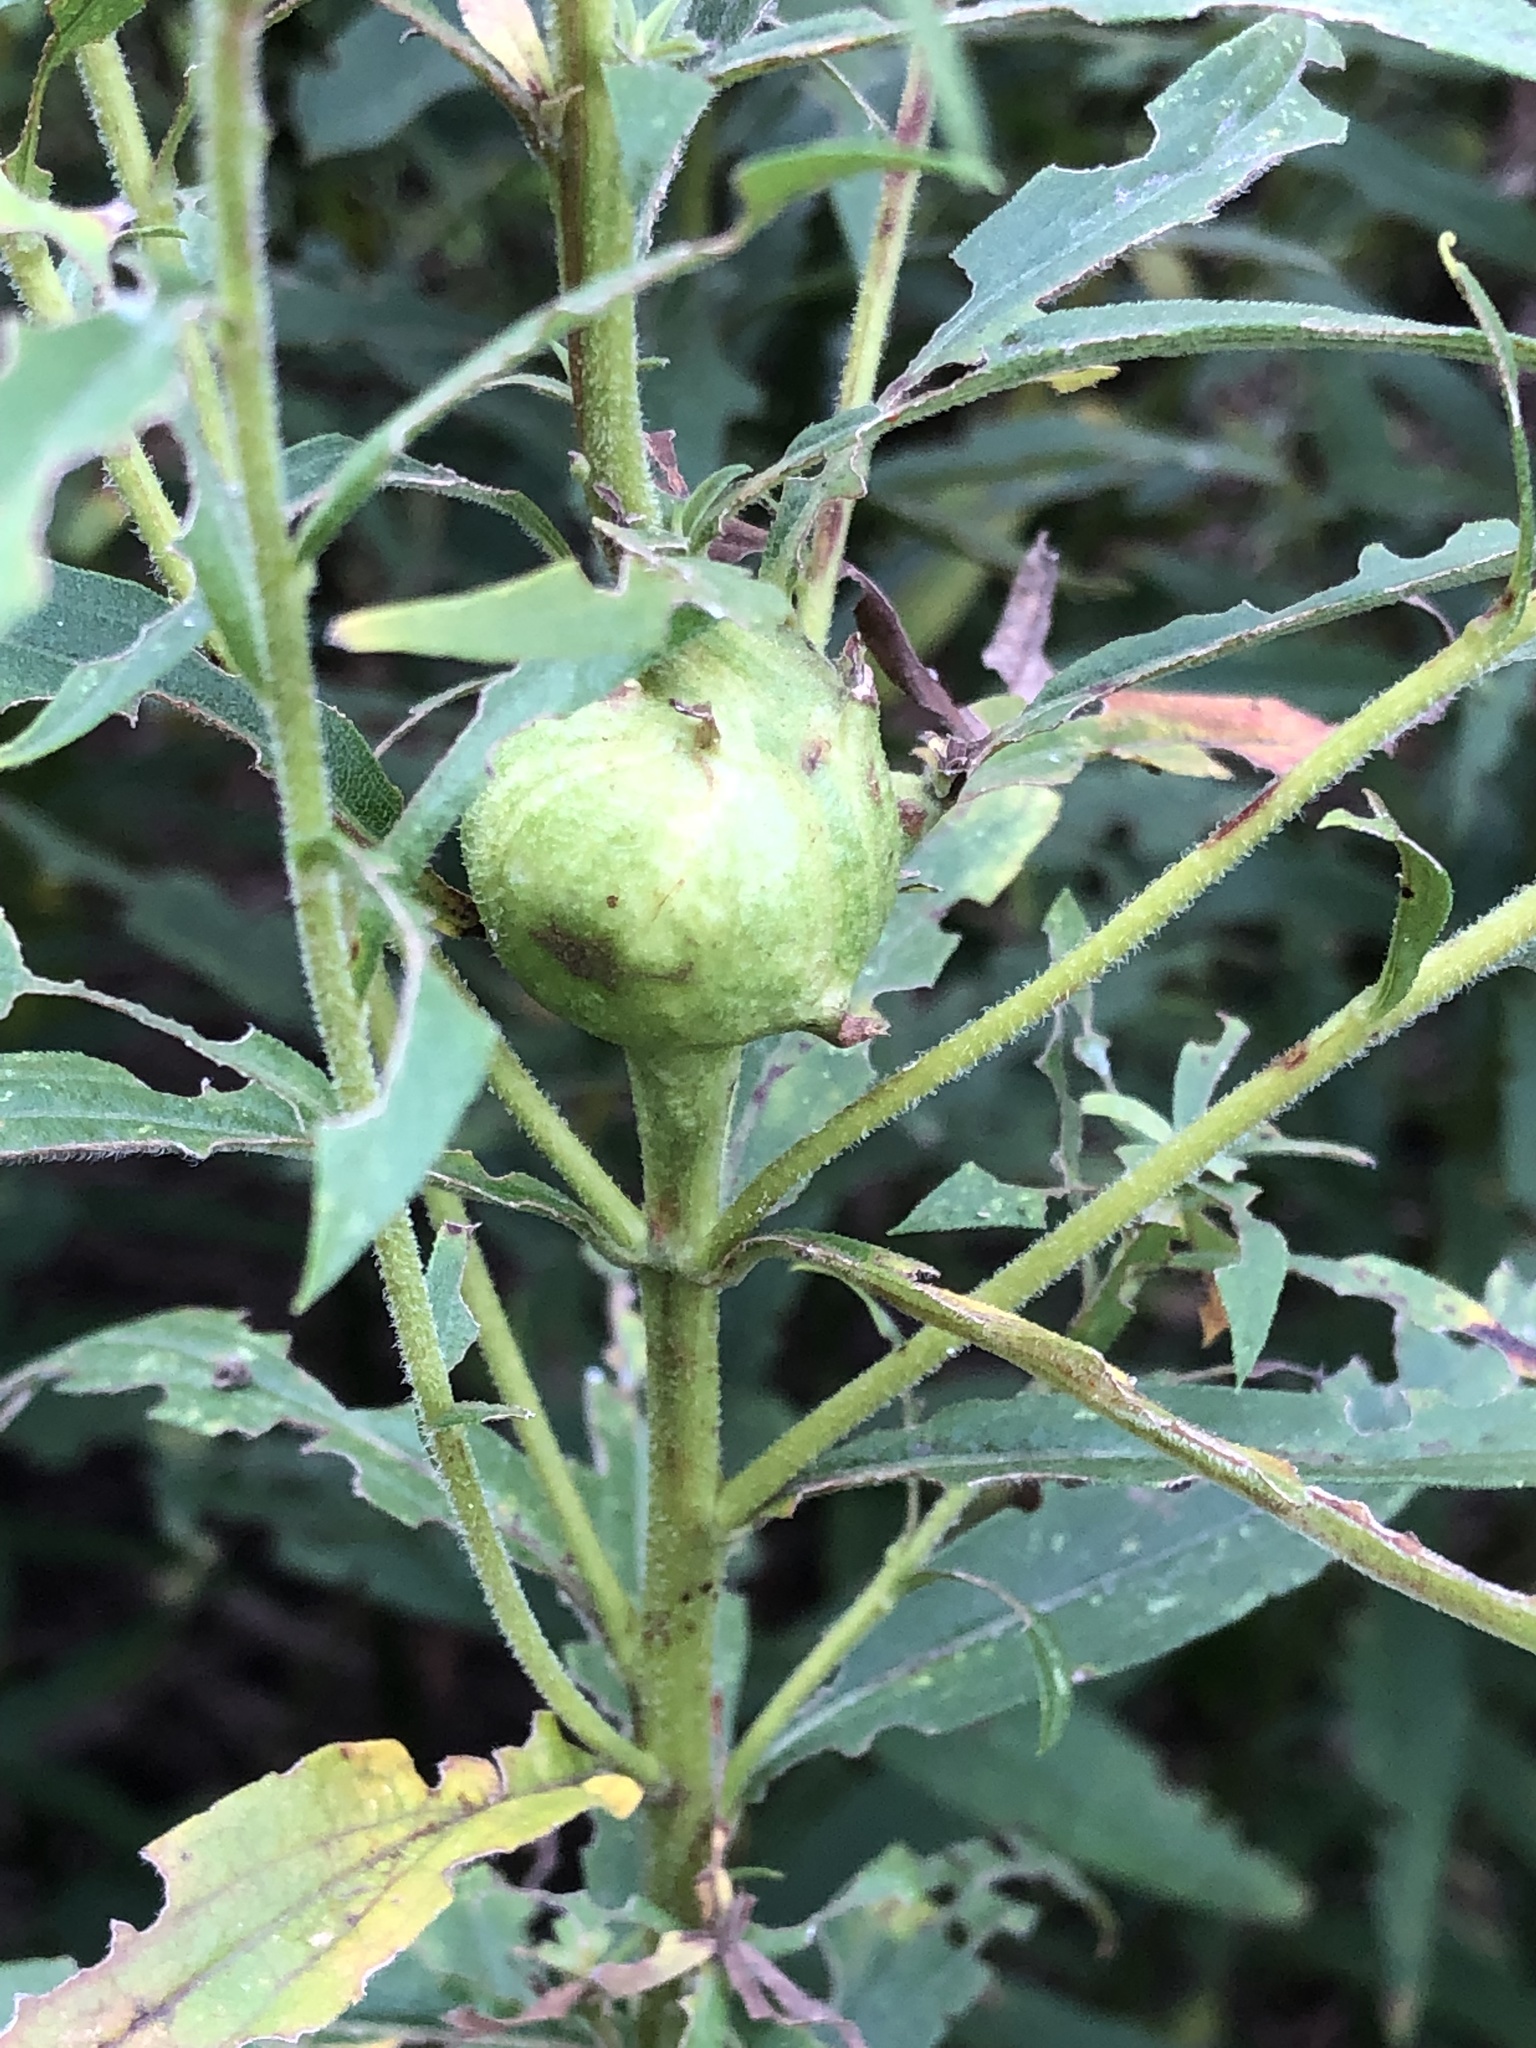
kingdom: Animalia
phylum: Arthropoda
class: Insecta
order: Diptera
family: Tephritidae
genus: Eurosta
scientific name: Eurosta solidaginis
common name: Goldenrod gall fly
